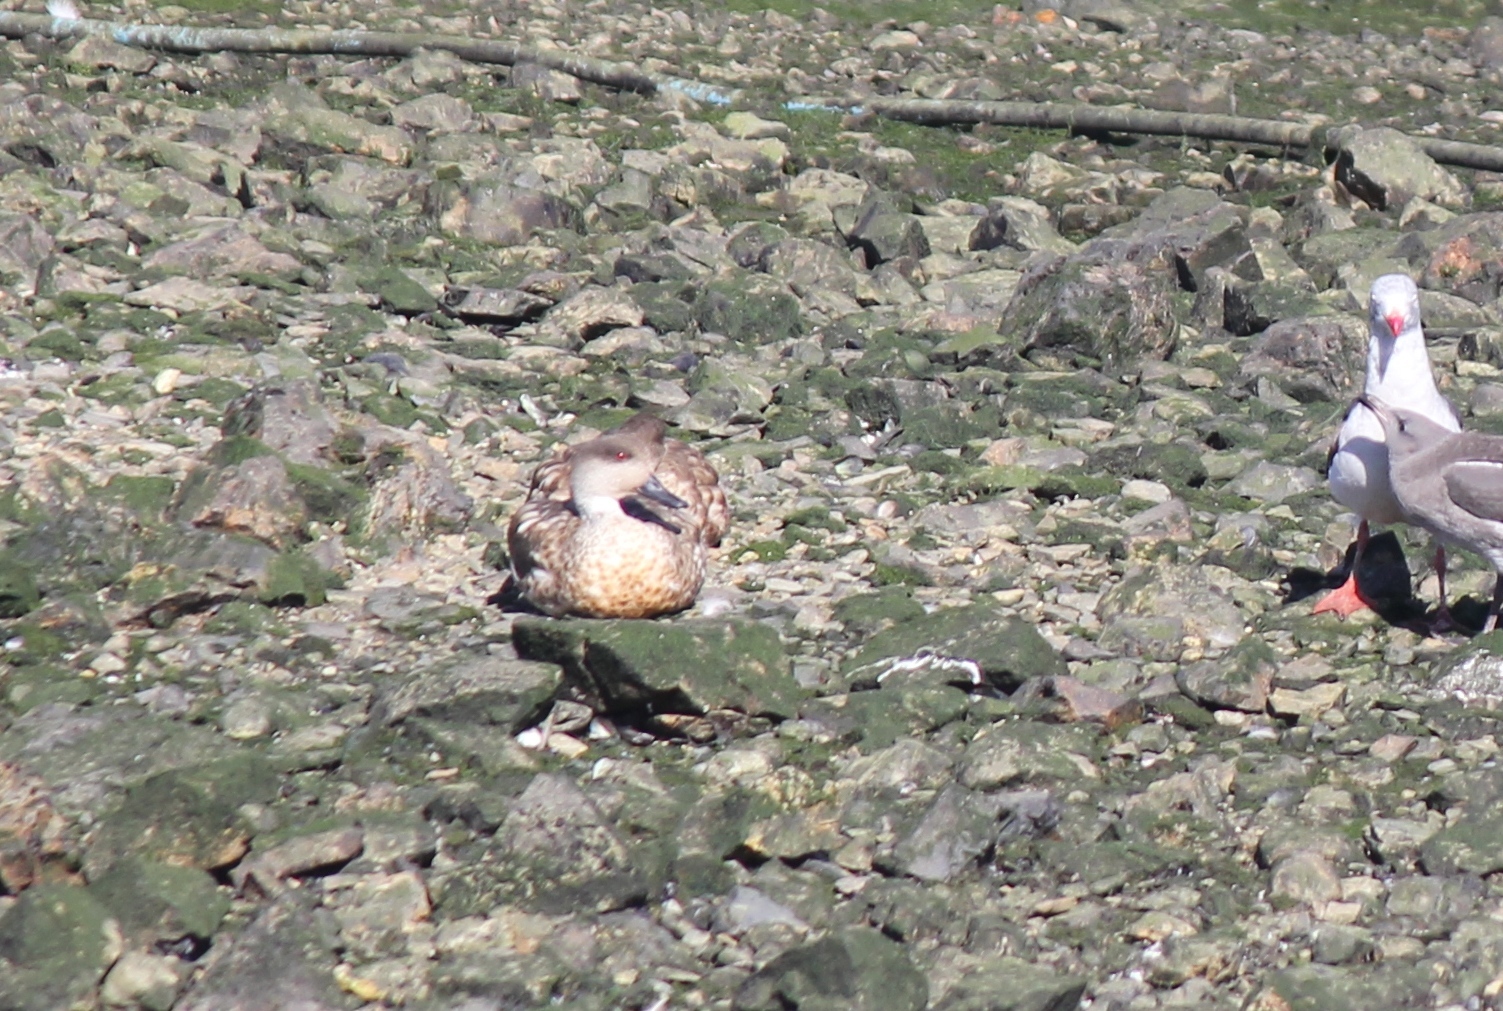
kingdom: Animalia
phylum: Chordata
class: Aves
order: Anseriformes
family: Anatidae
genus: Lophonetta
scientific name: Lophonetta specularioides
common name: Crested duck
